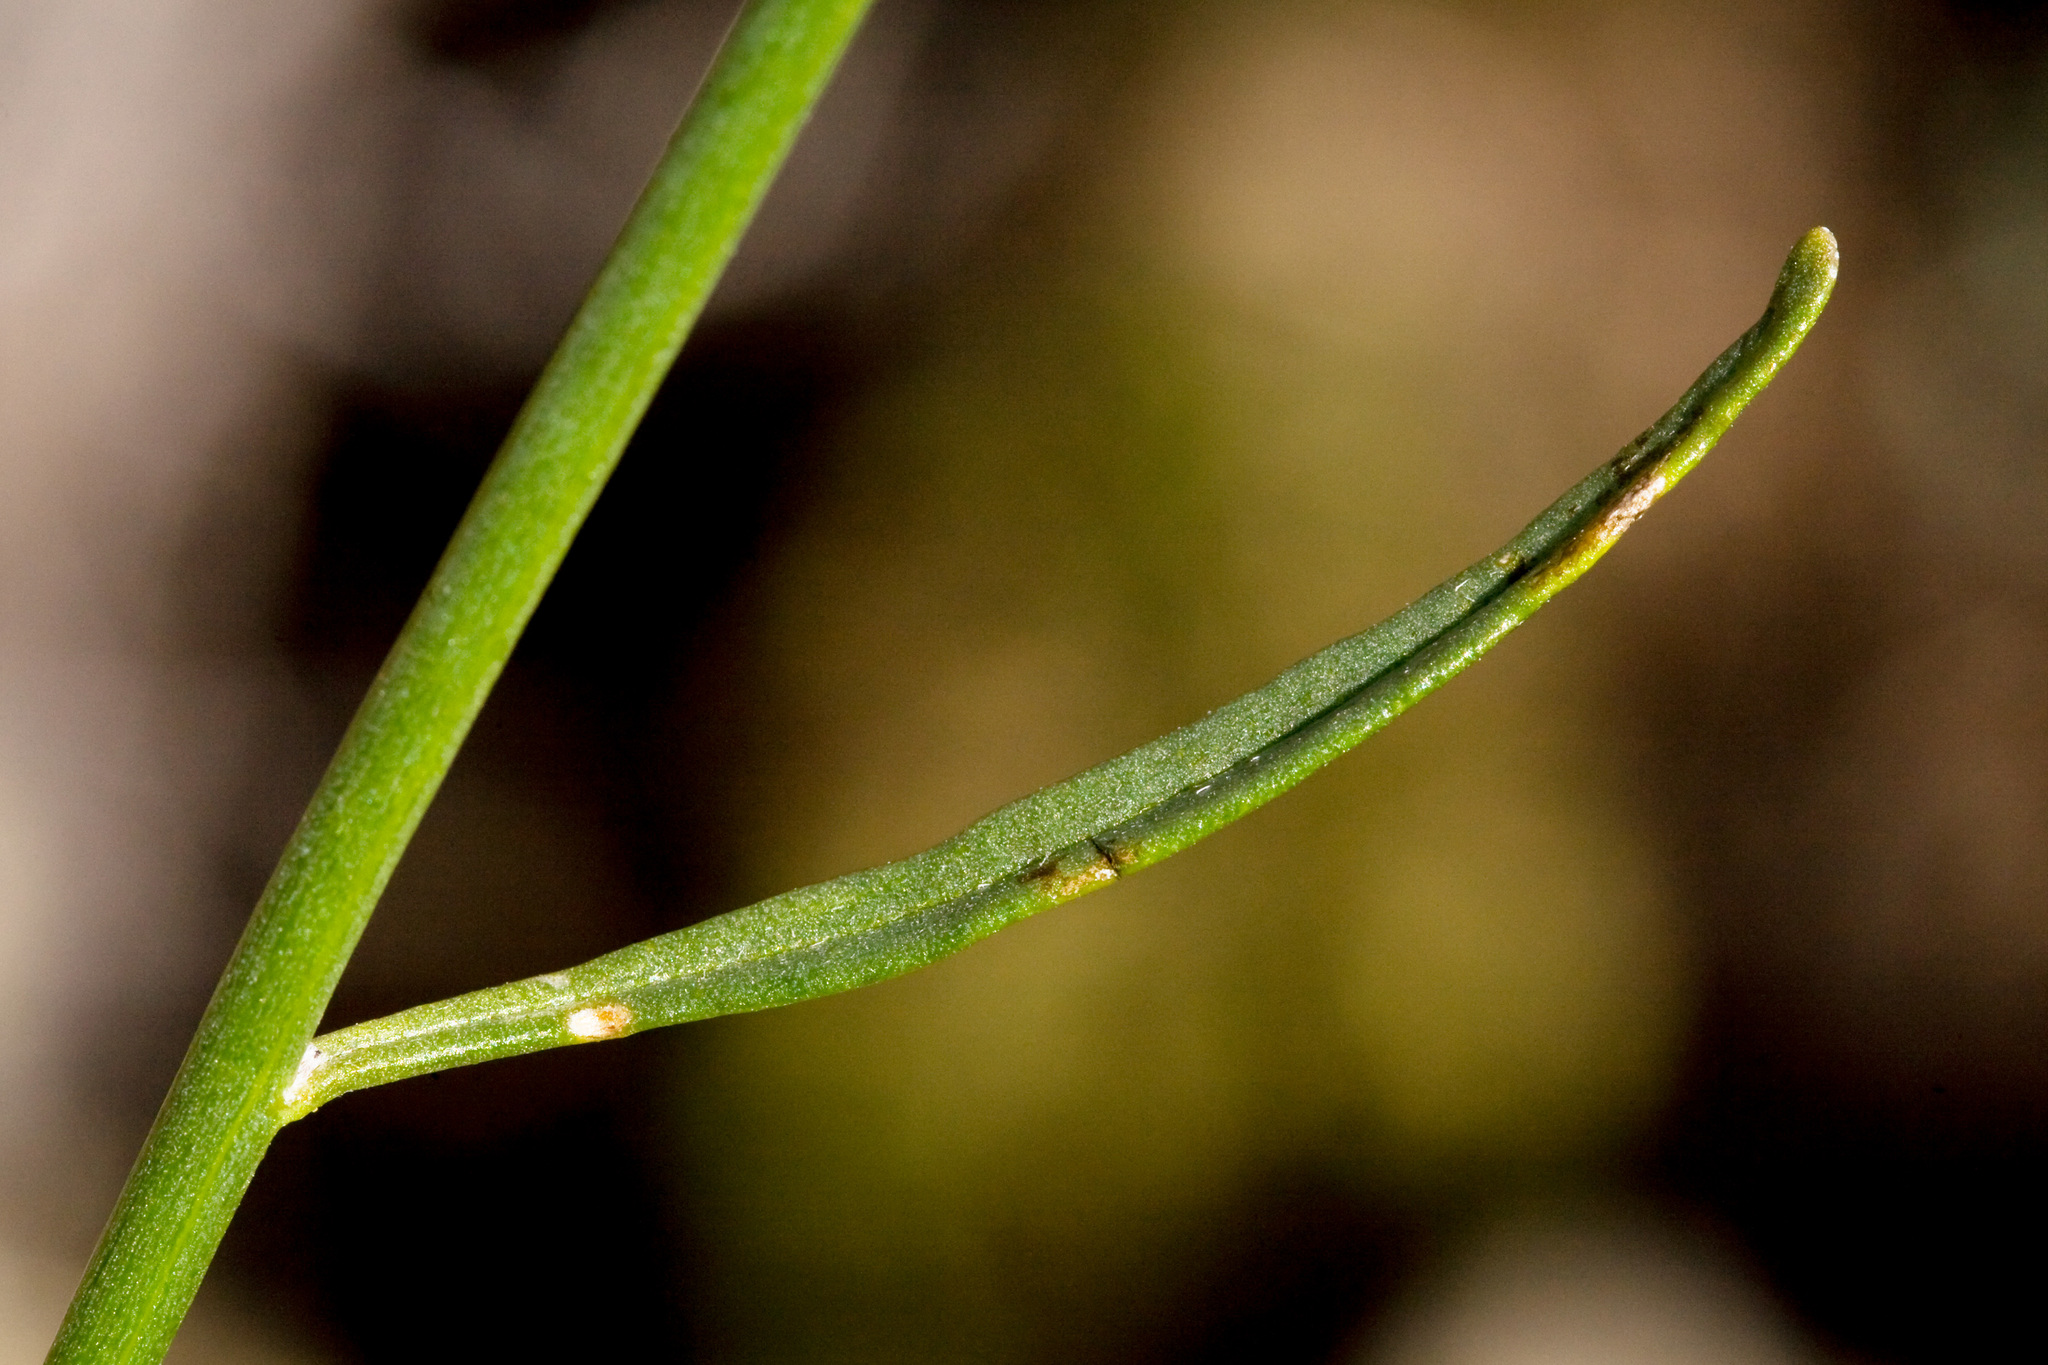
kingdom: Plantae
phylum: Tracheophyta
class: Magnoliopsida
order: Asterales
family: Asteraceae
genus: Bebbia
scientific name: Bebbia juncea
